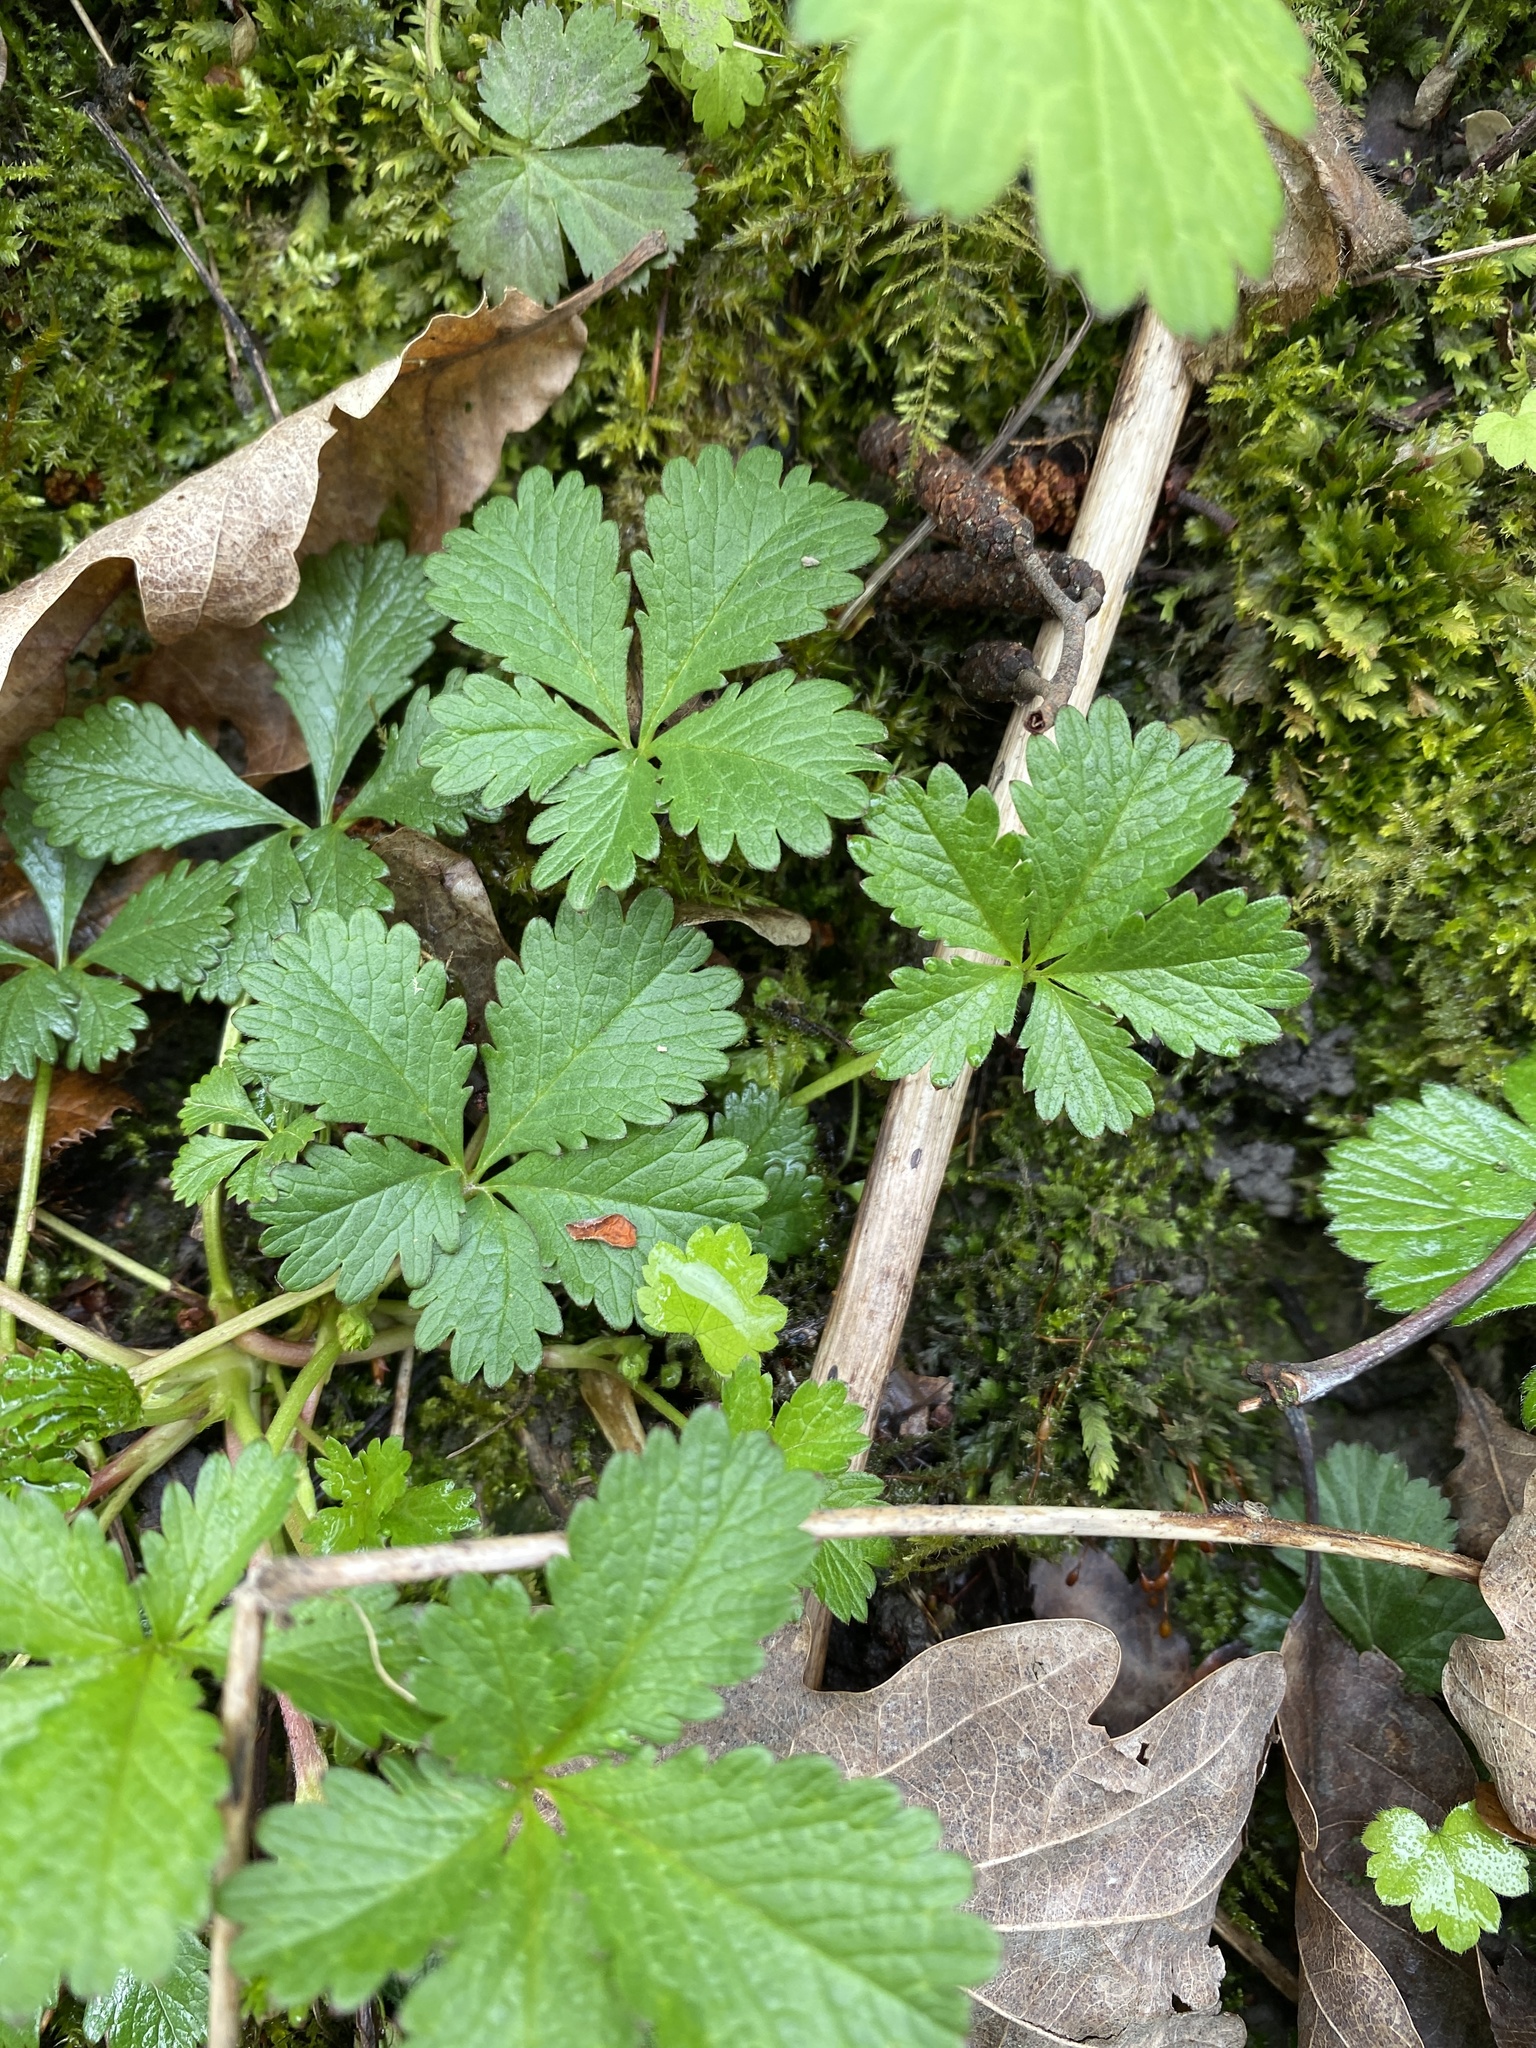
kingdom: Plantae
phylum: Tracheophyta
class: Magnoliopsida
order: Rosales
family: Rosaceae
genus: Potentilla
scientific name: Potentilla reptans
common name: Creeping cinquefoil
